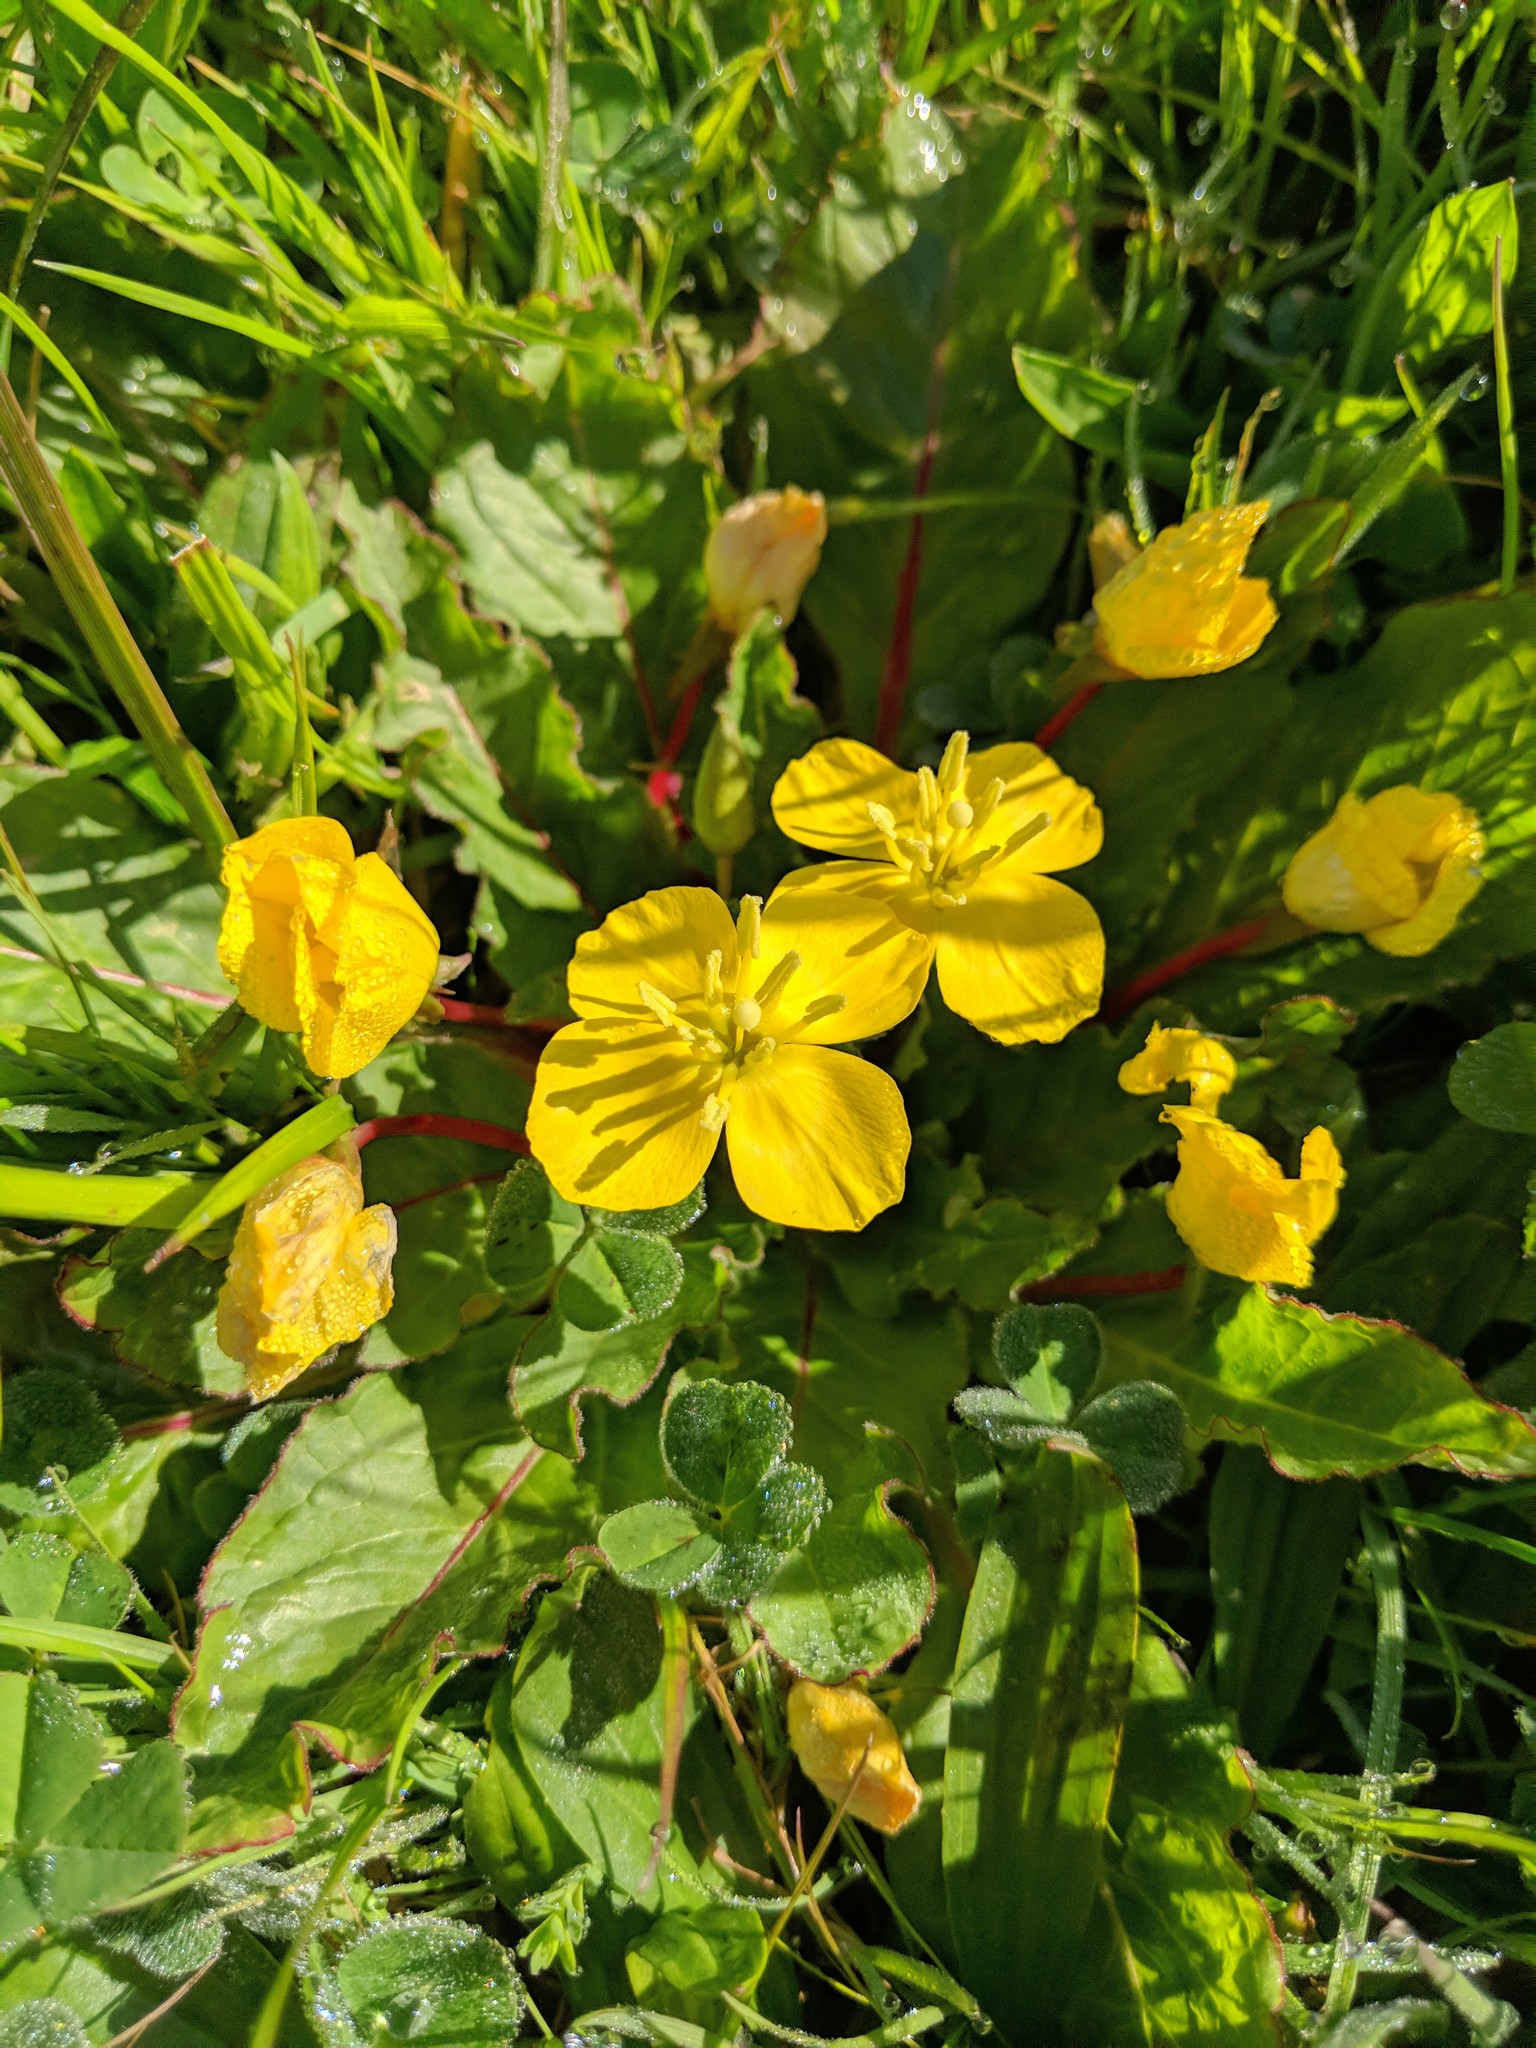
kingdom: Plantae
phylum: Tracheophyta
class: Magnoliopsida
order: Myrtales
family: Onagraceae
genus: Taraxia
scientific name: Taraxia ovata
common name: Goldeneggs
